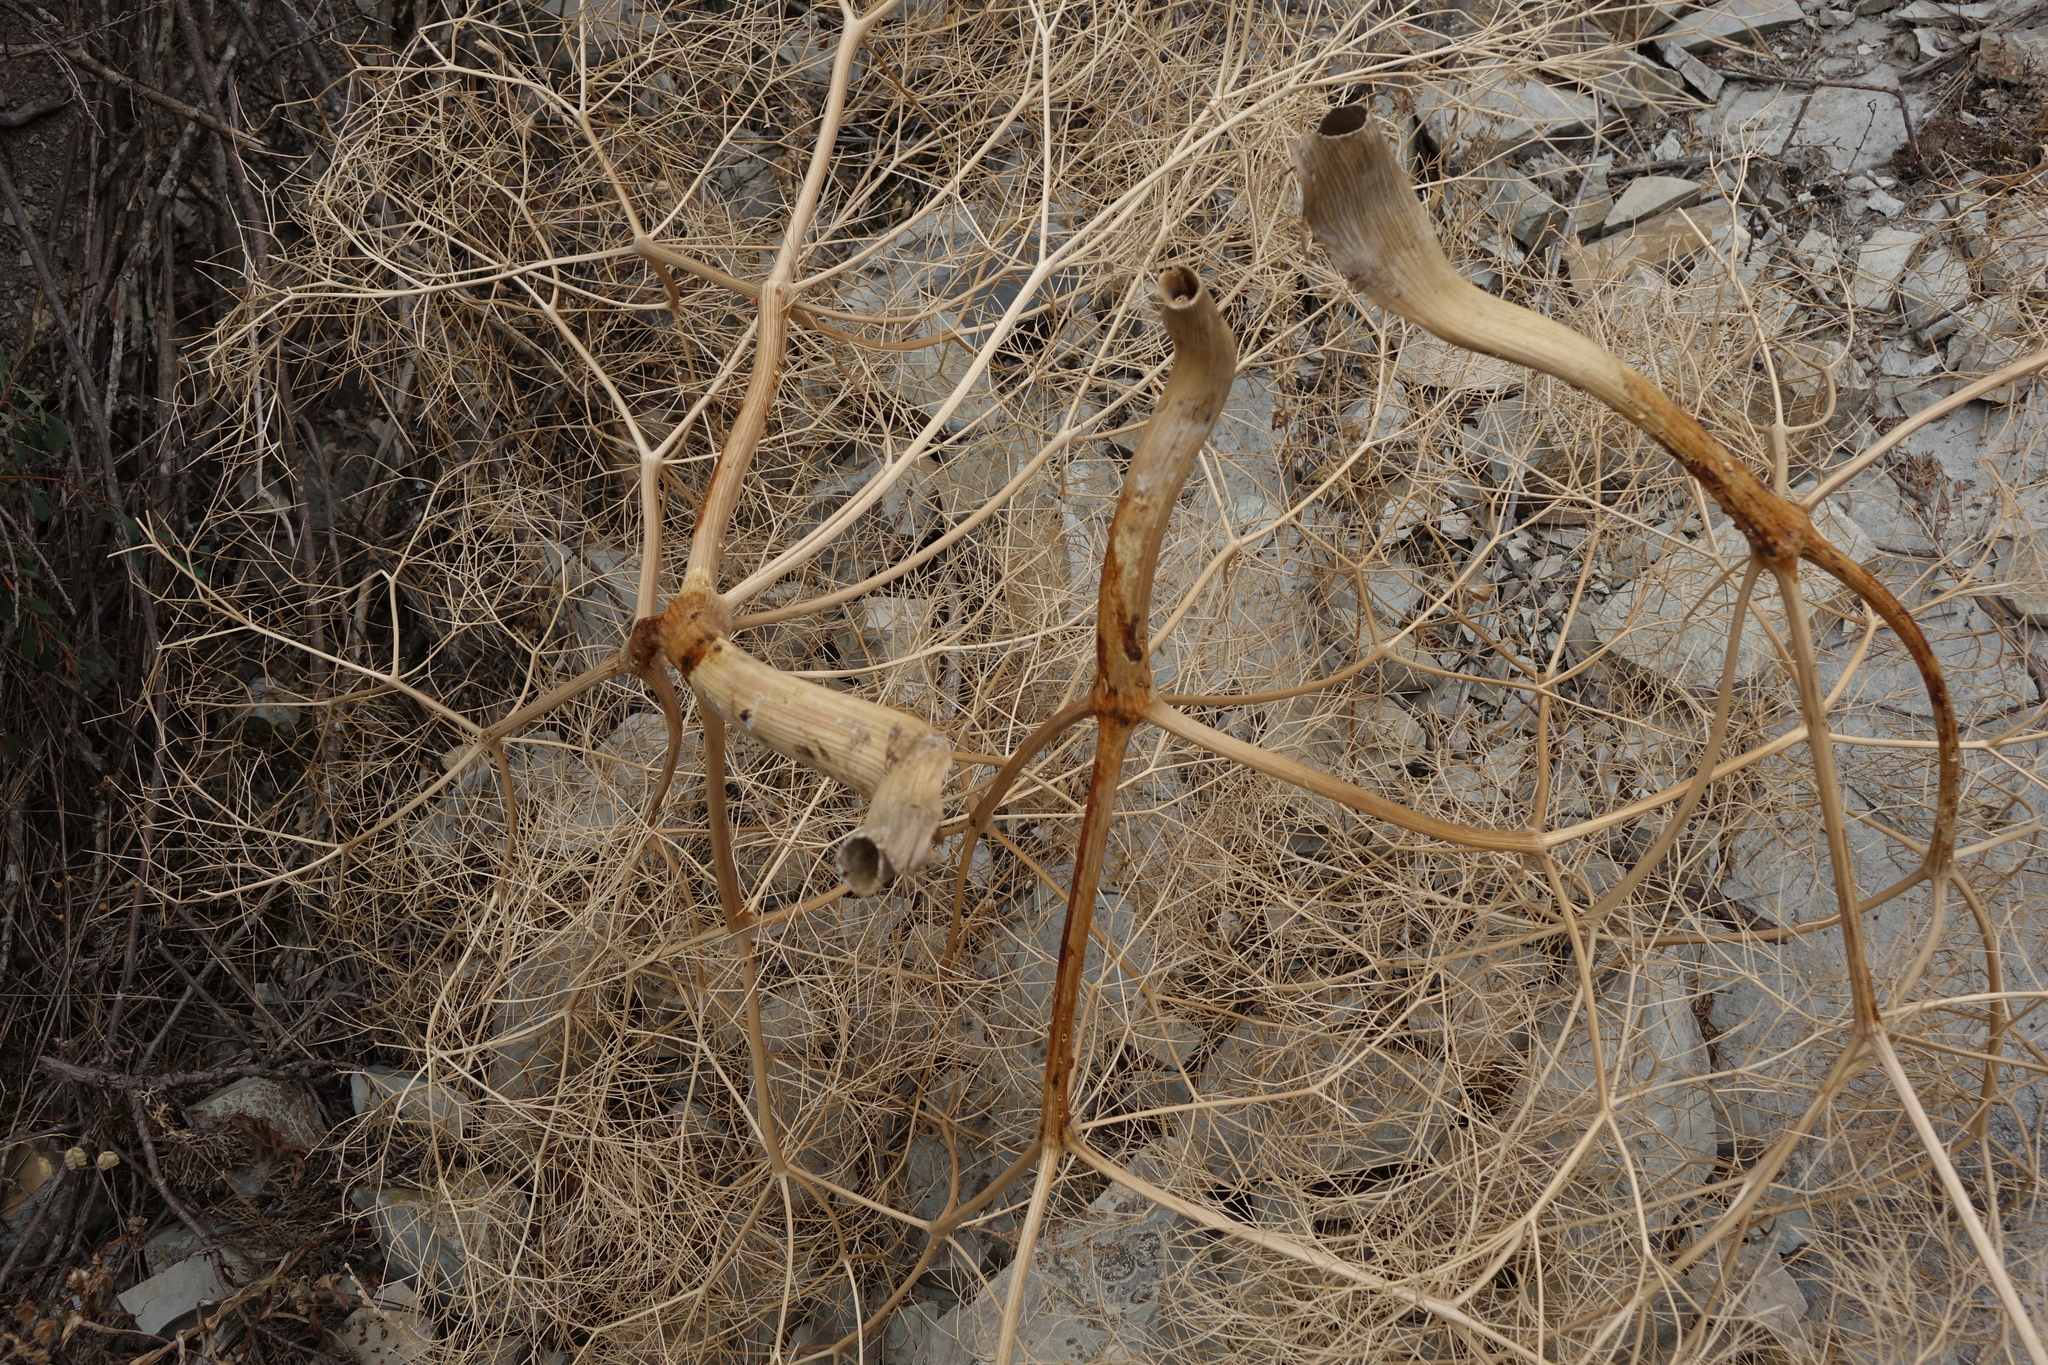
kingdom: Plantae
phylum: Tracheophyta
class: Magnoliopsida
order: Apiales
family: Apiaceae
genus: Bilacunaria
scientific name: Bilacunaria microcarpa
